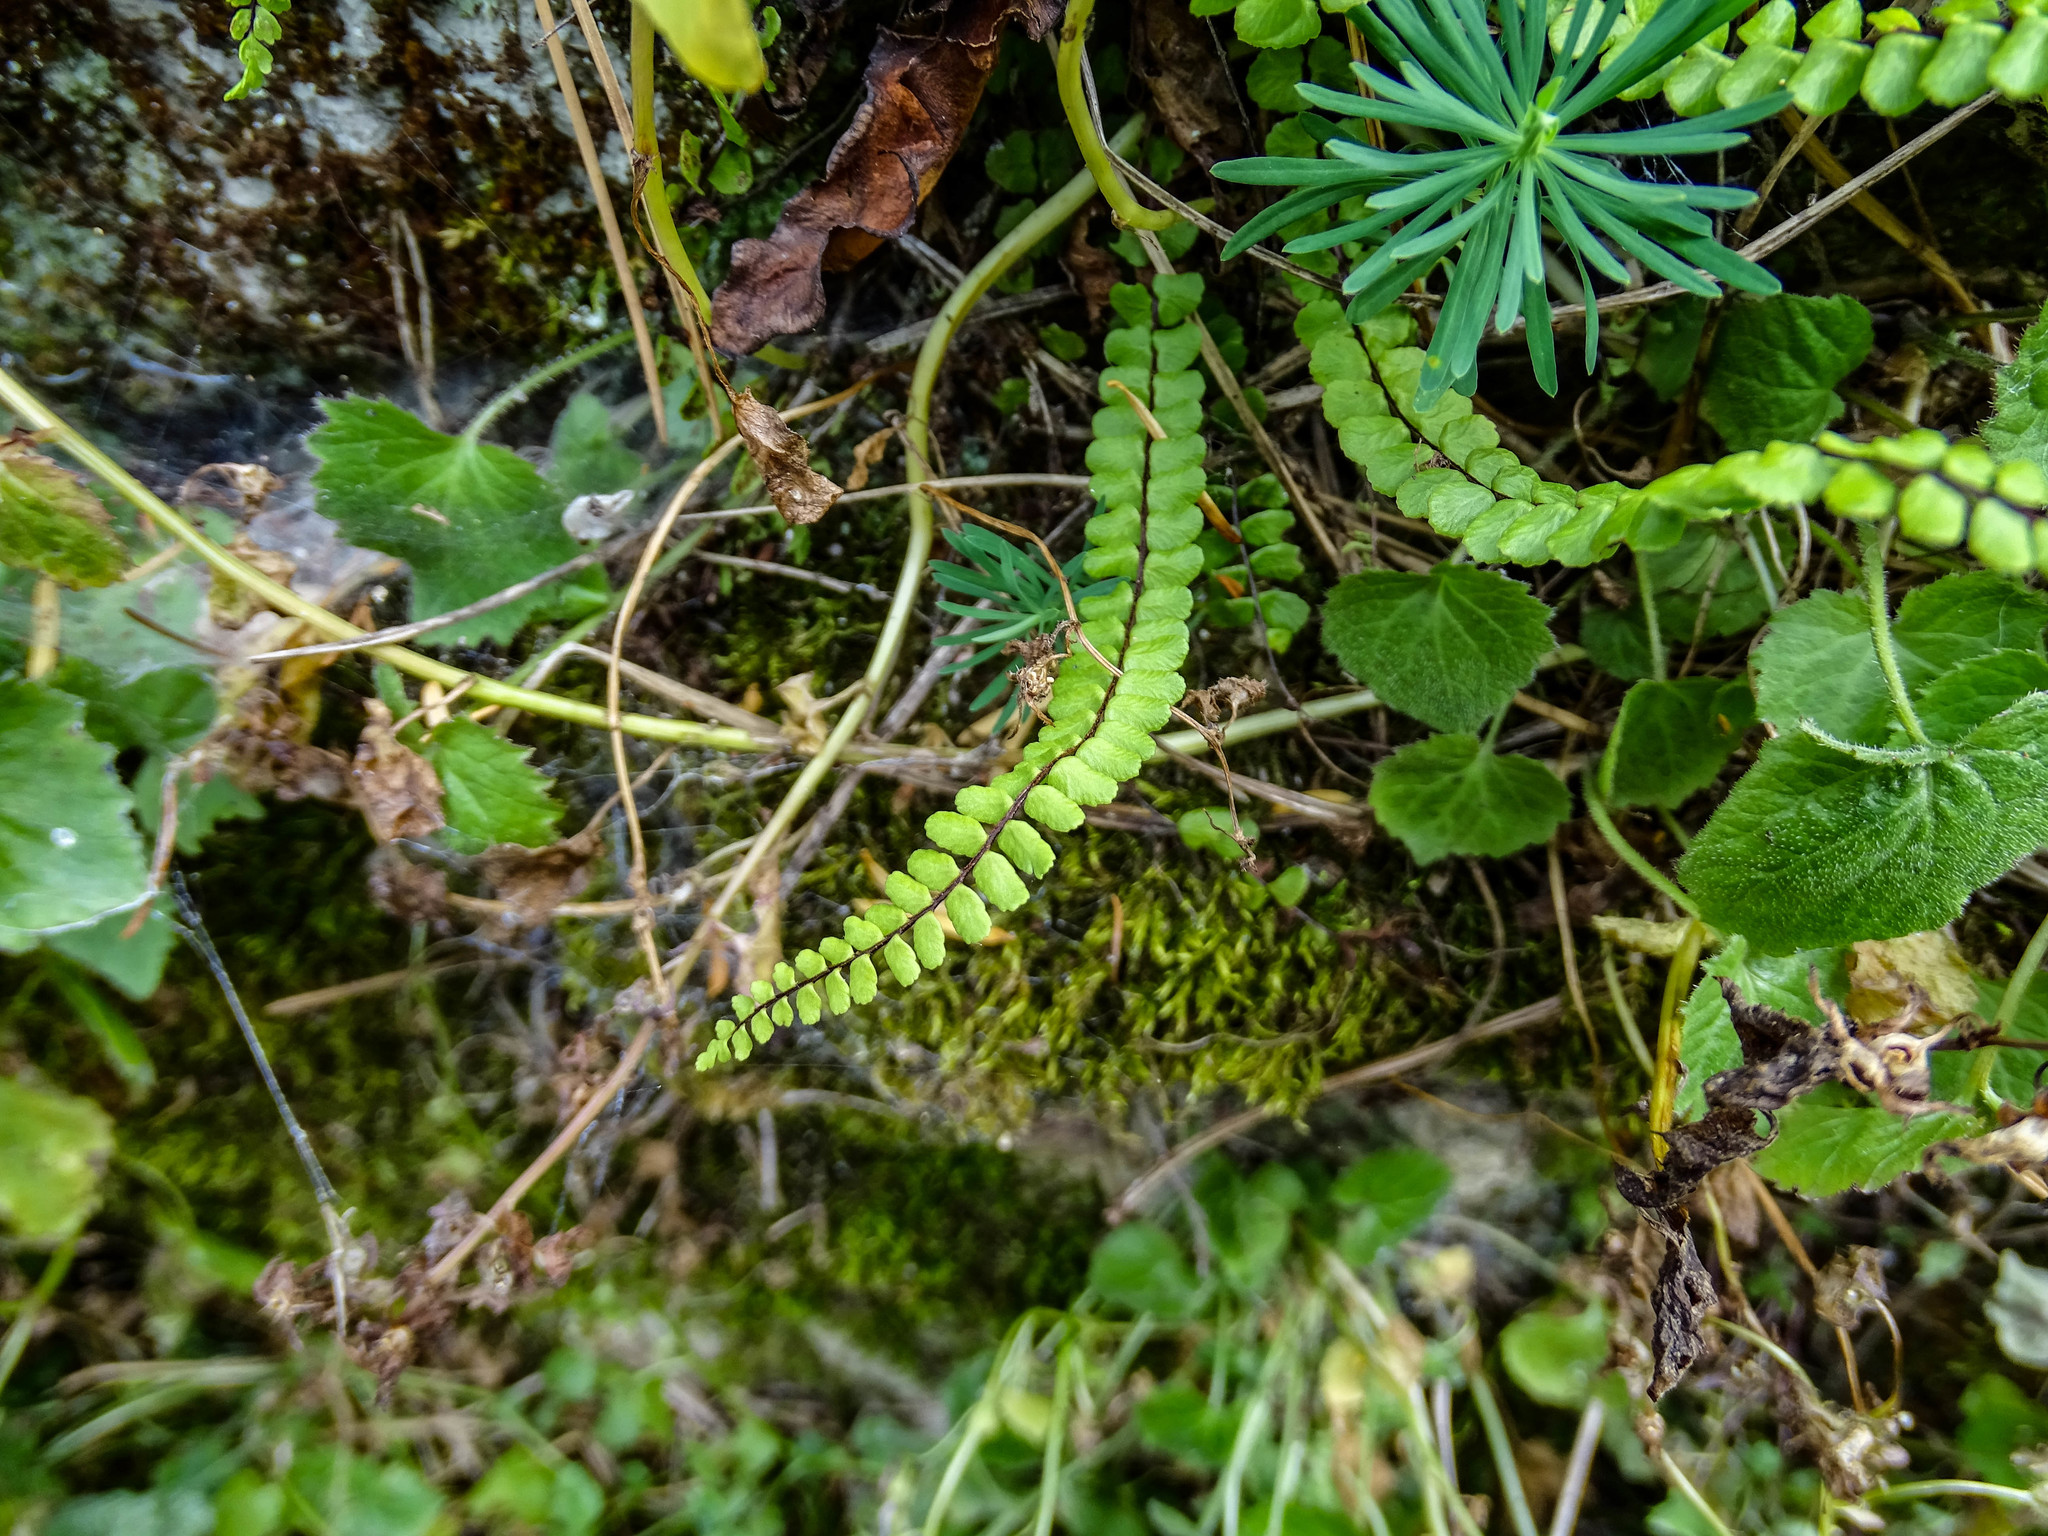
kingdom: Plantae
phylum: Tracheophyta
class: Polypodiopsida
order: Polypodiales
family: Aspleniaceae
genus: Asplenium
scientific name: Asplenium trichomanes
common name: Maidenhair spleenwort
